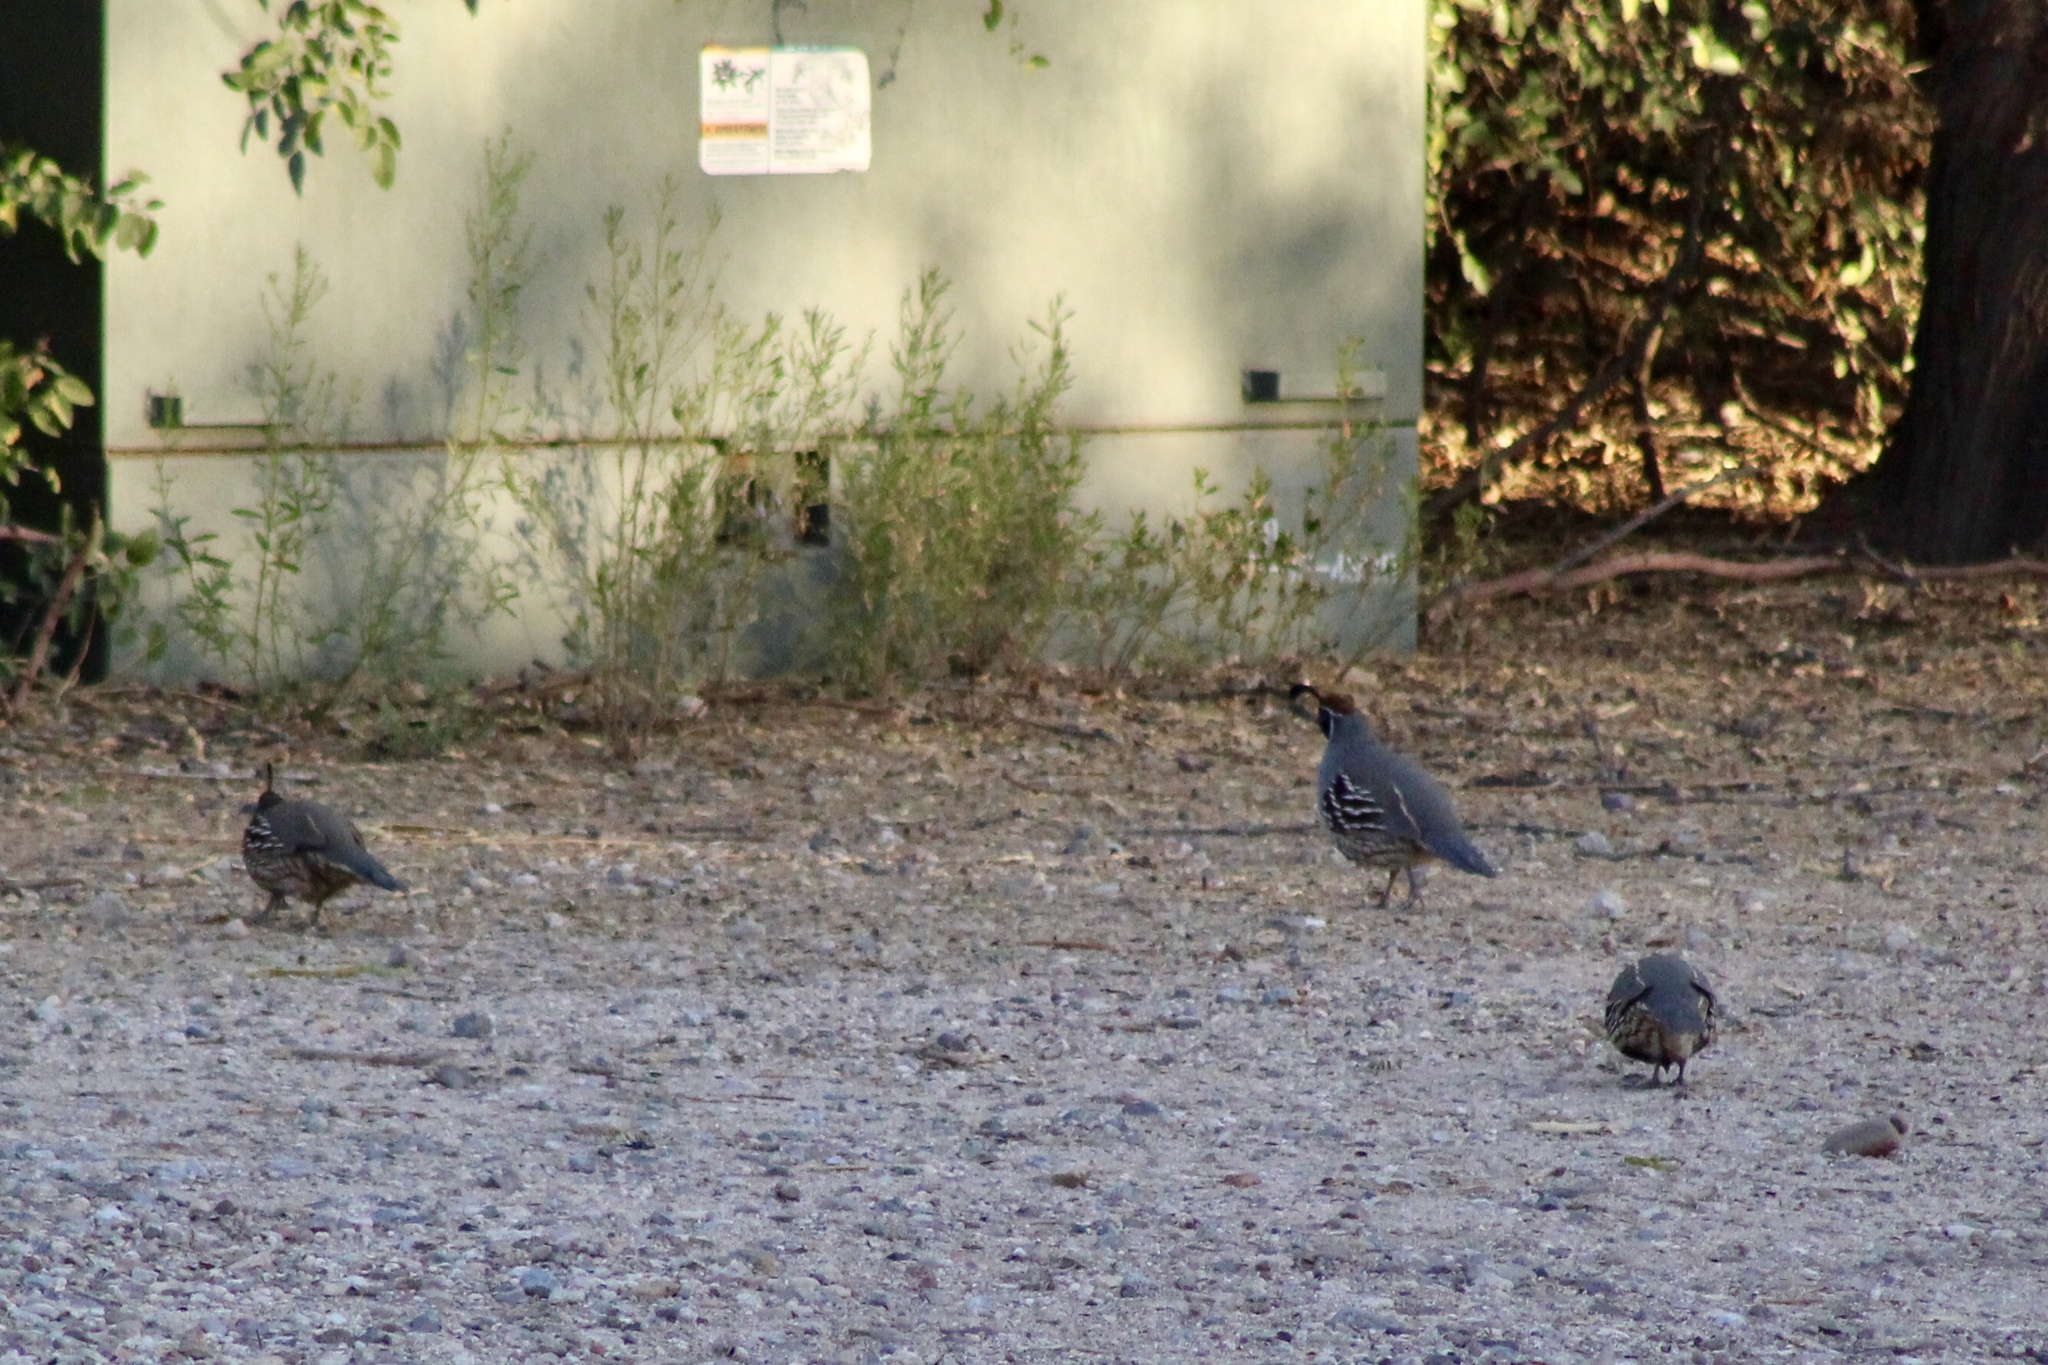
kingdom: Animalia
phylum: Chordata
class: Aves
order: Galliformes
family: Odontophoridae
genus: Callipepla
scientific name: Callipepla gambelii
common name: Gambel's quail
